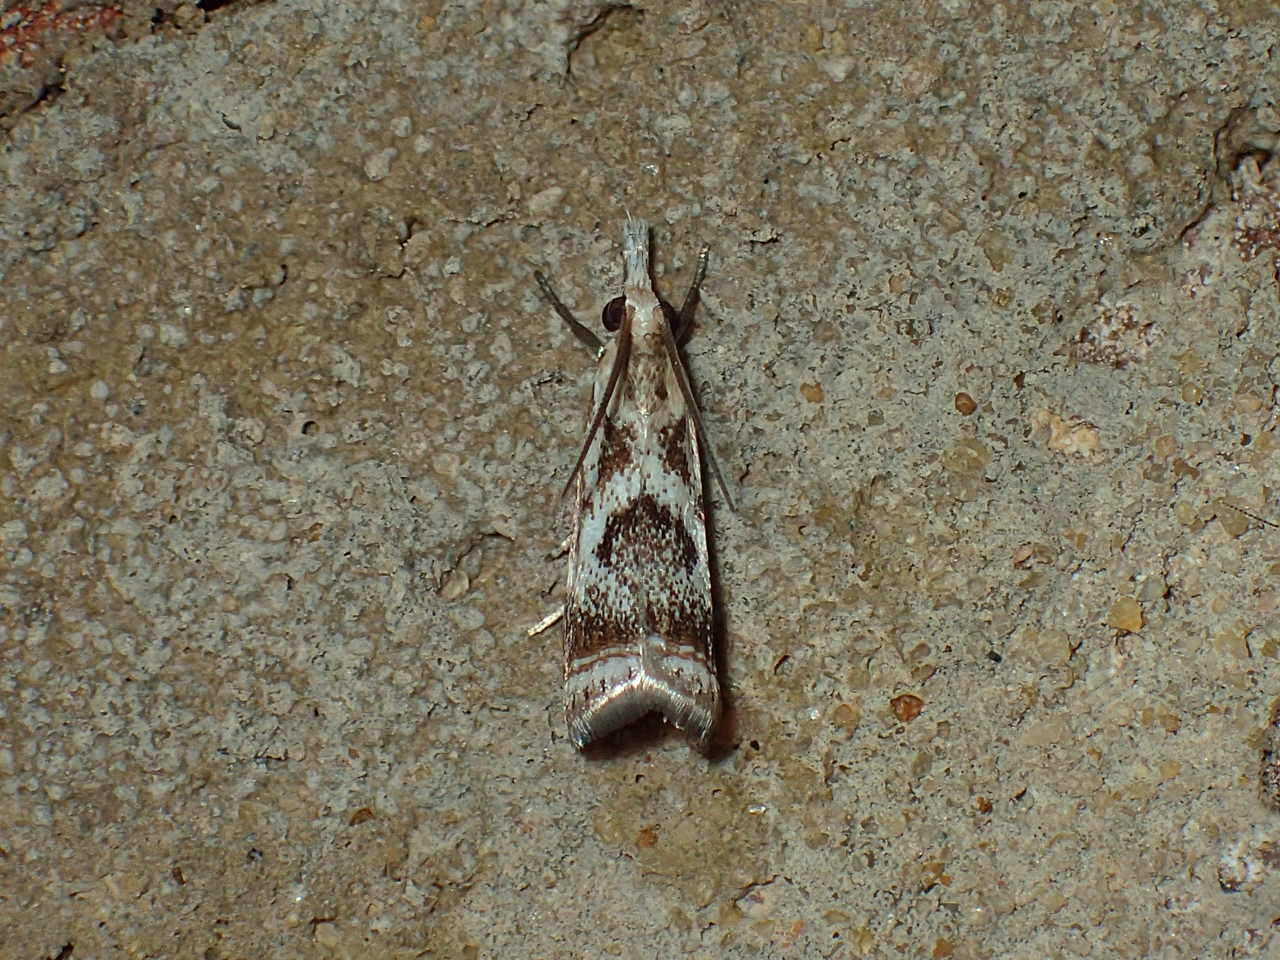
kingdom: Animalia
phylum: Arthropoda
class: Insecta
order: Lepidoptera
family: Crambidae
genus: Microcrambus
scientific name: Microcrambus elegans
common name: Elegant grass-veneer
